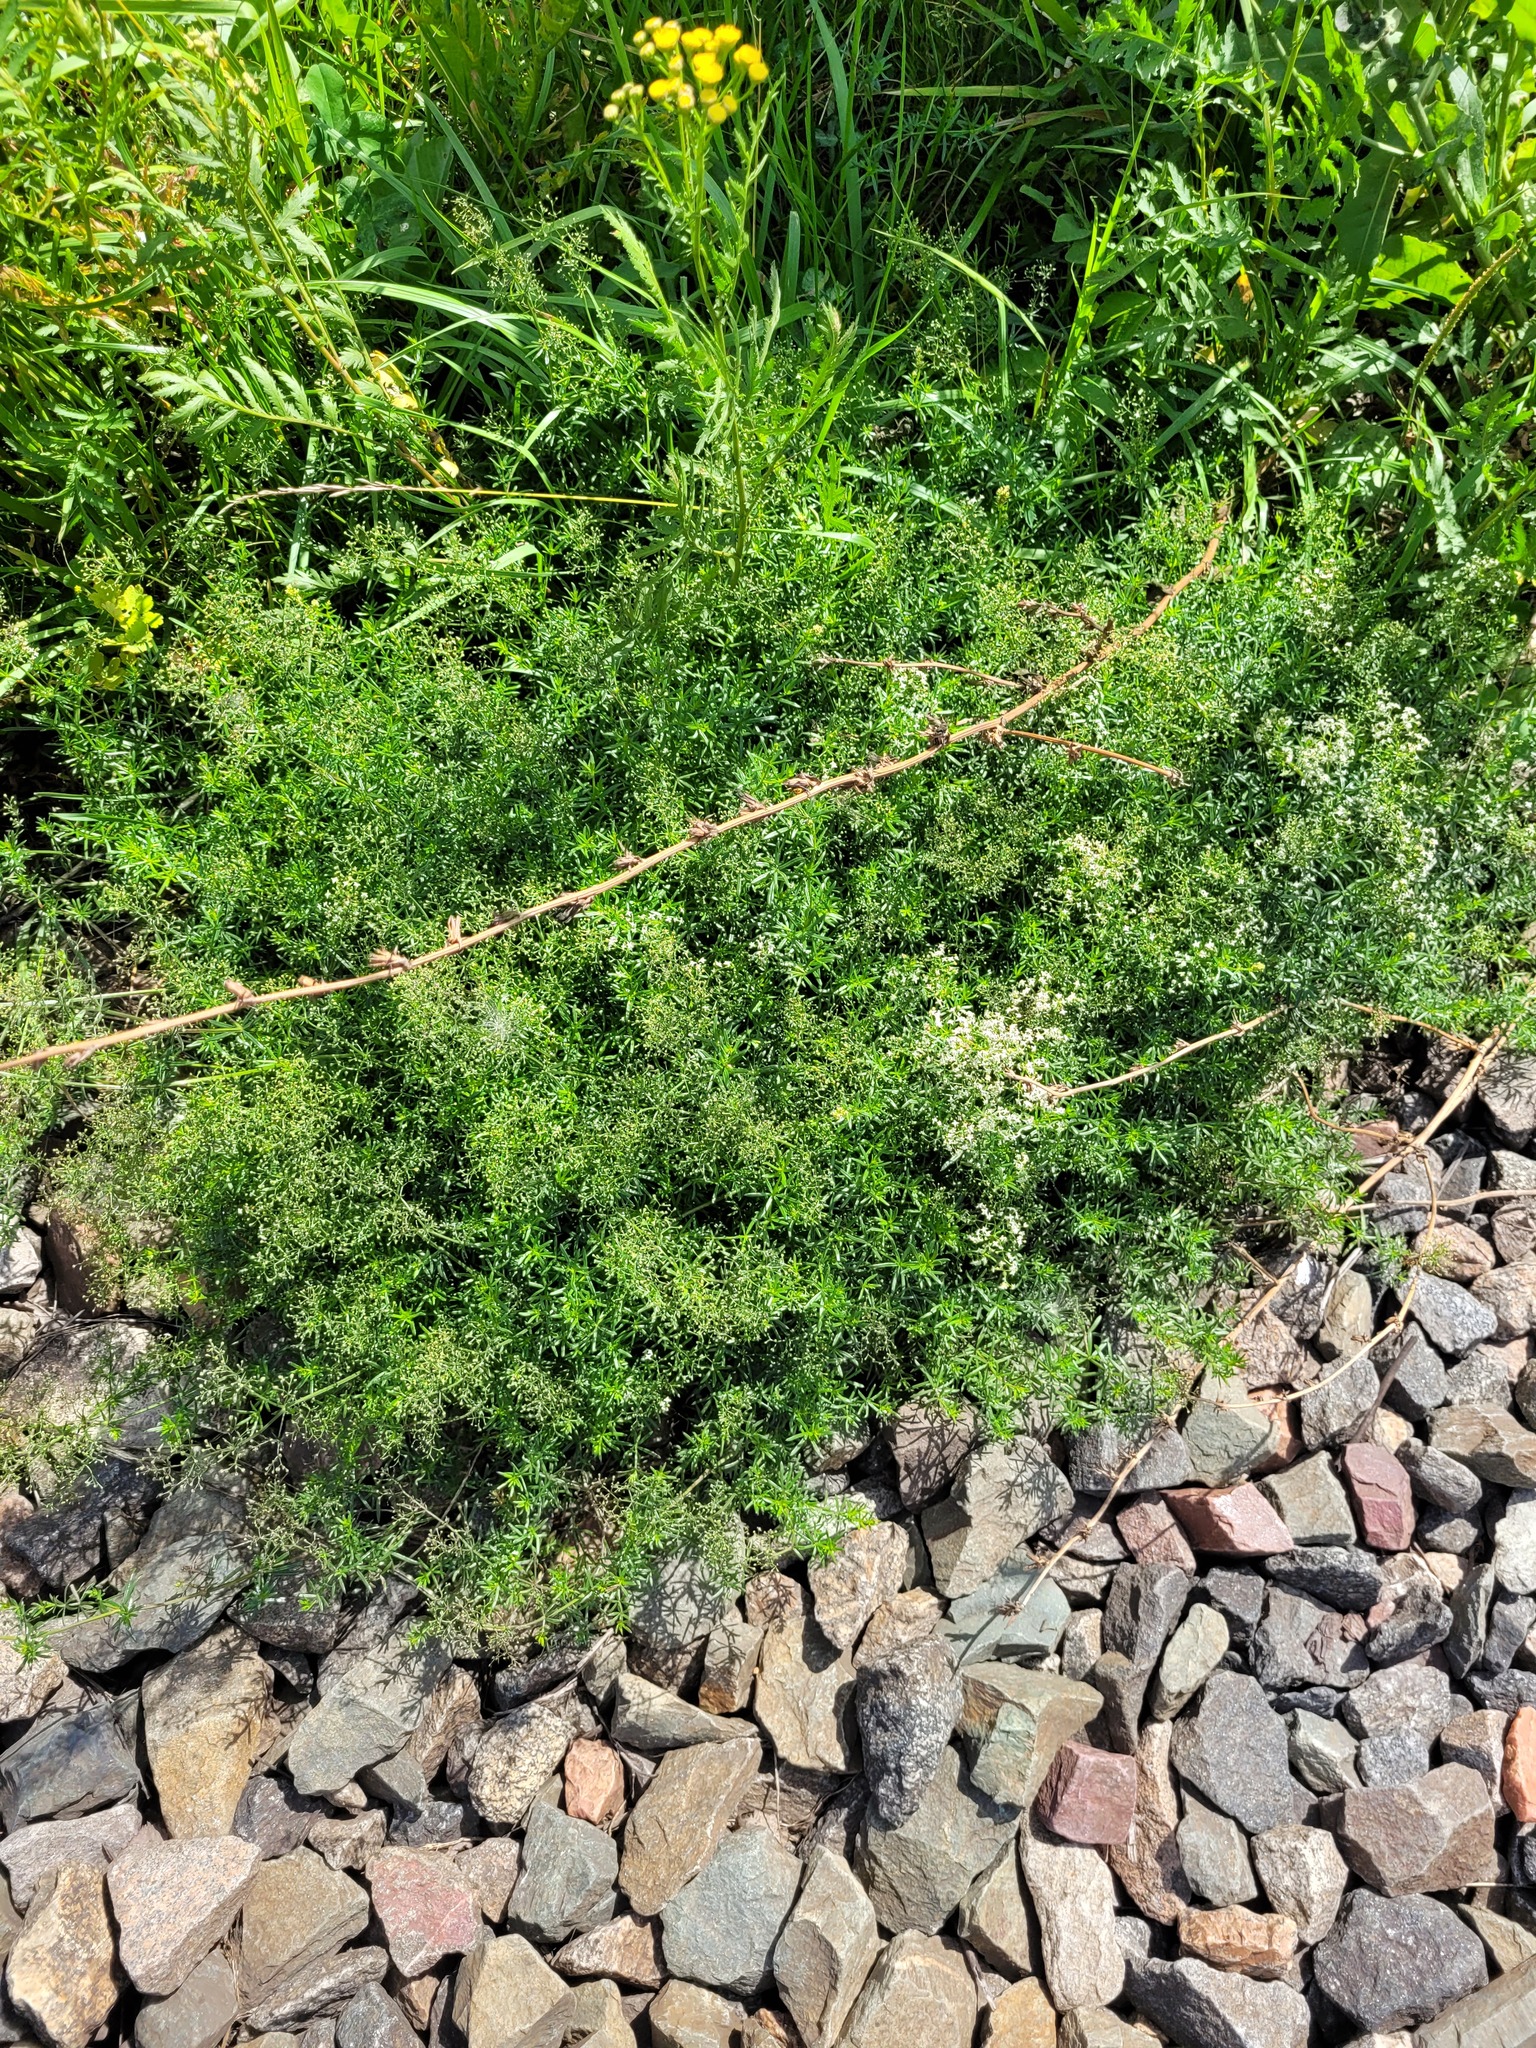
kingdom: Plantae
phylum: Tracheophyta
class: Magnoliopsida
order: Gentianales
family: Rubiaceae
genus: Galium
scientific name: Galium mollugo
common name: Hedge bedstraw
